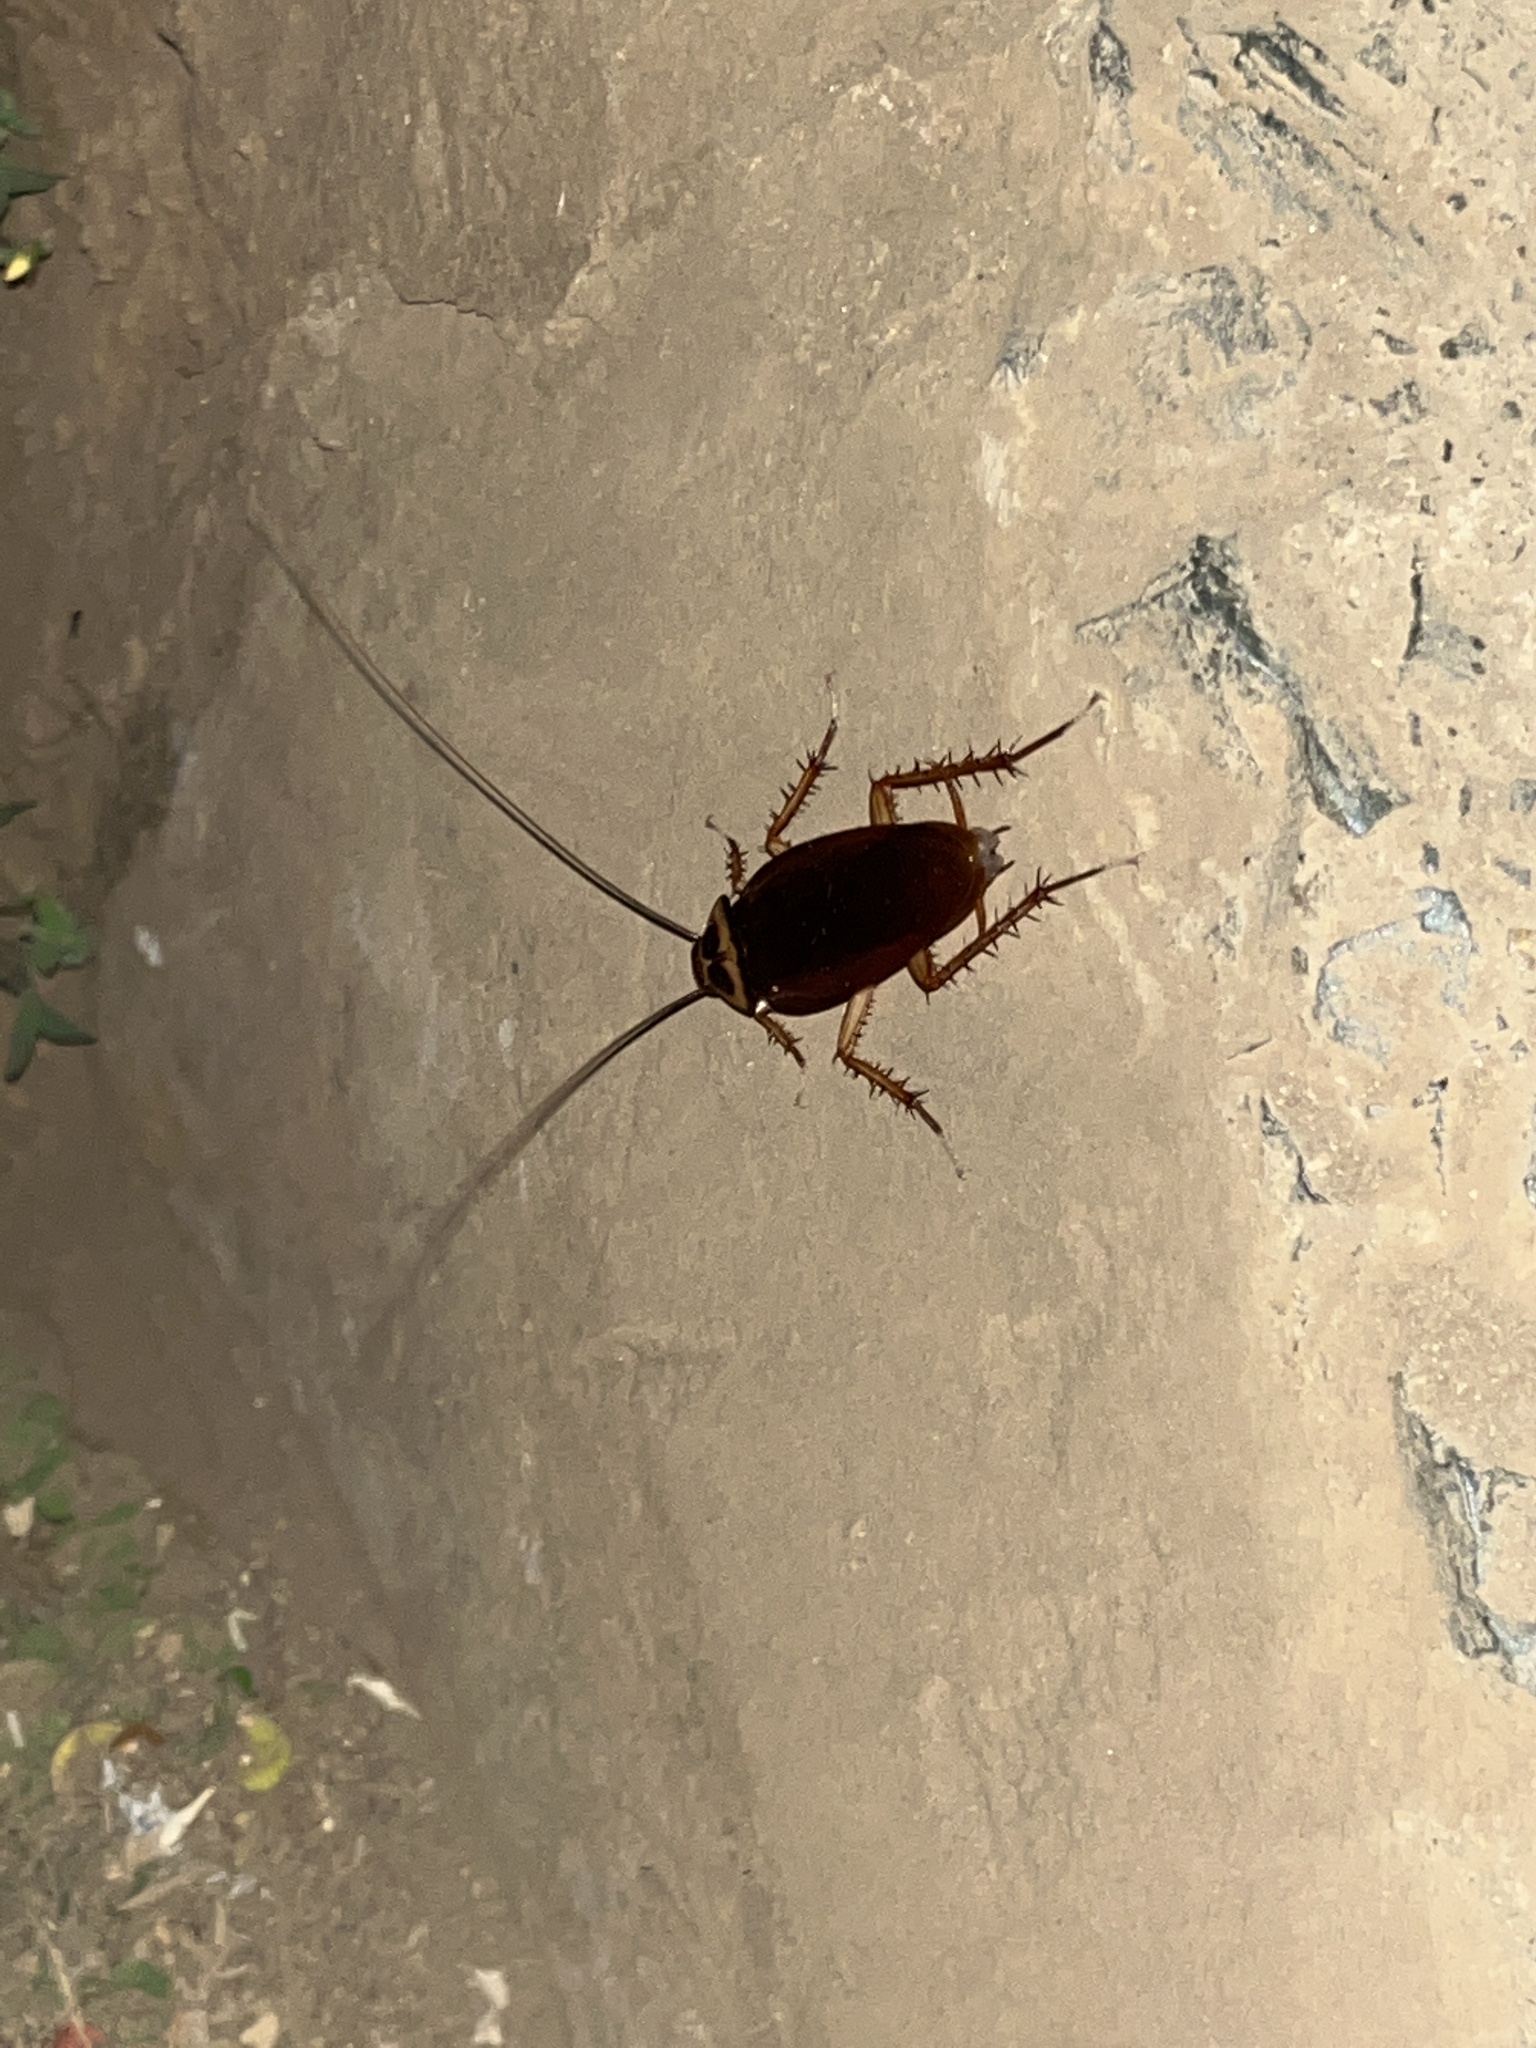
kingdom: Animalia
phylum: Arthropoda
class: Insecta
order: Blattodea
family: Blattidae
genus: Periplaneta
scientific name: Periplaneta americana
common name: American cockroach
